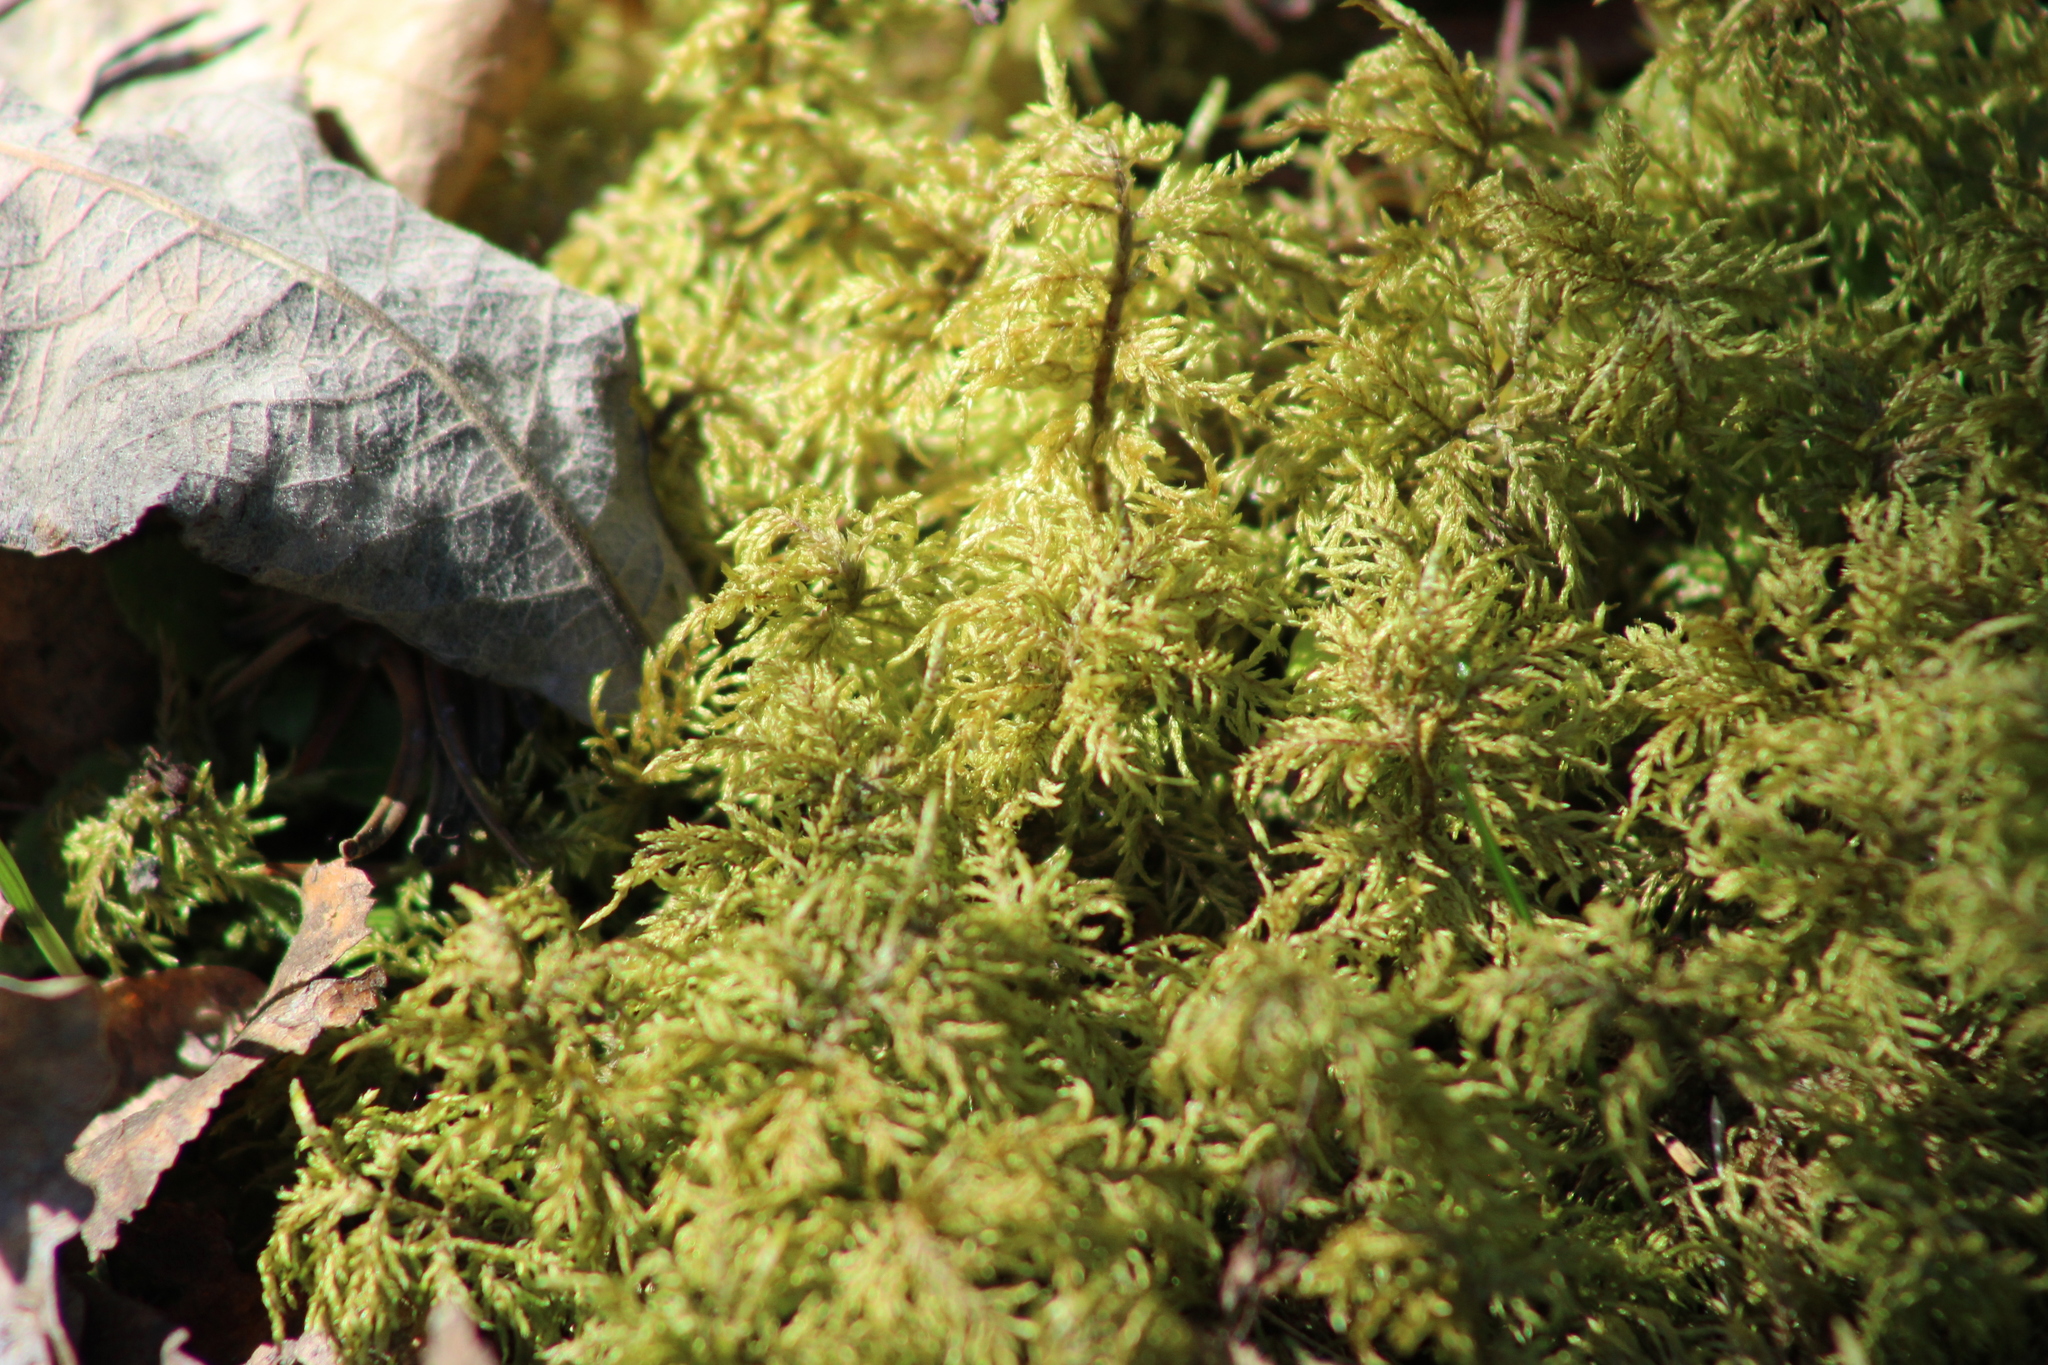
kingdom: Plantae
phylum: Bryophyta
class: Bryopsida
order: Hypnales
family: Hylocomiaceae
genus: Hylocomium
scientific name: Hylocomium splendens
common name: Stairstep moss
